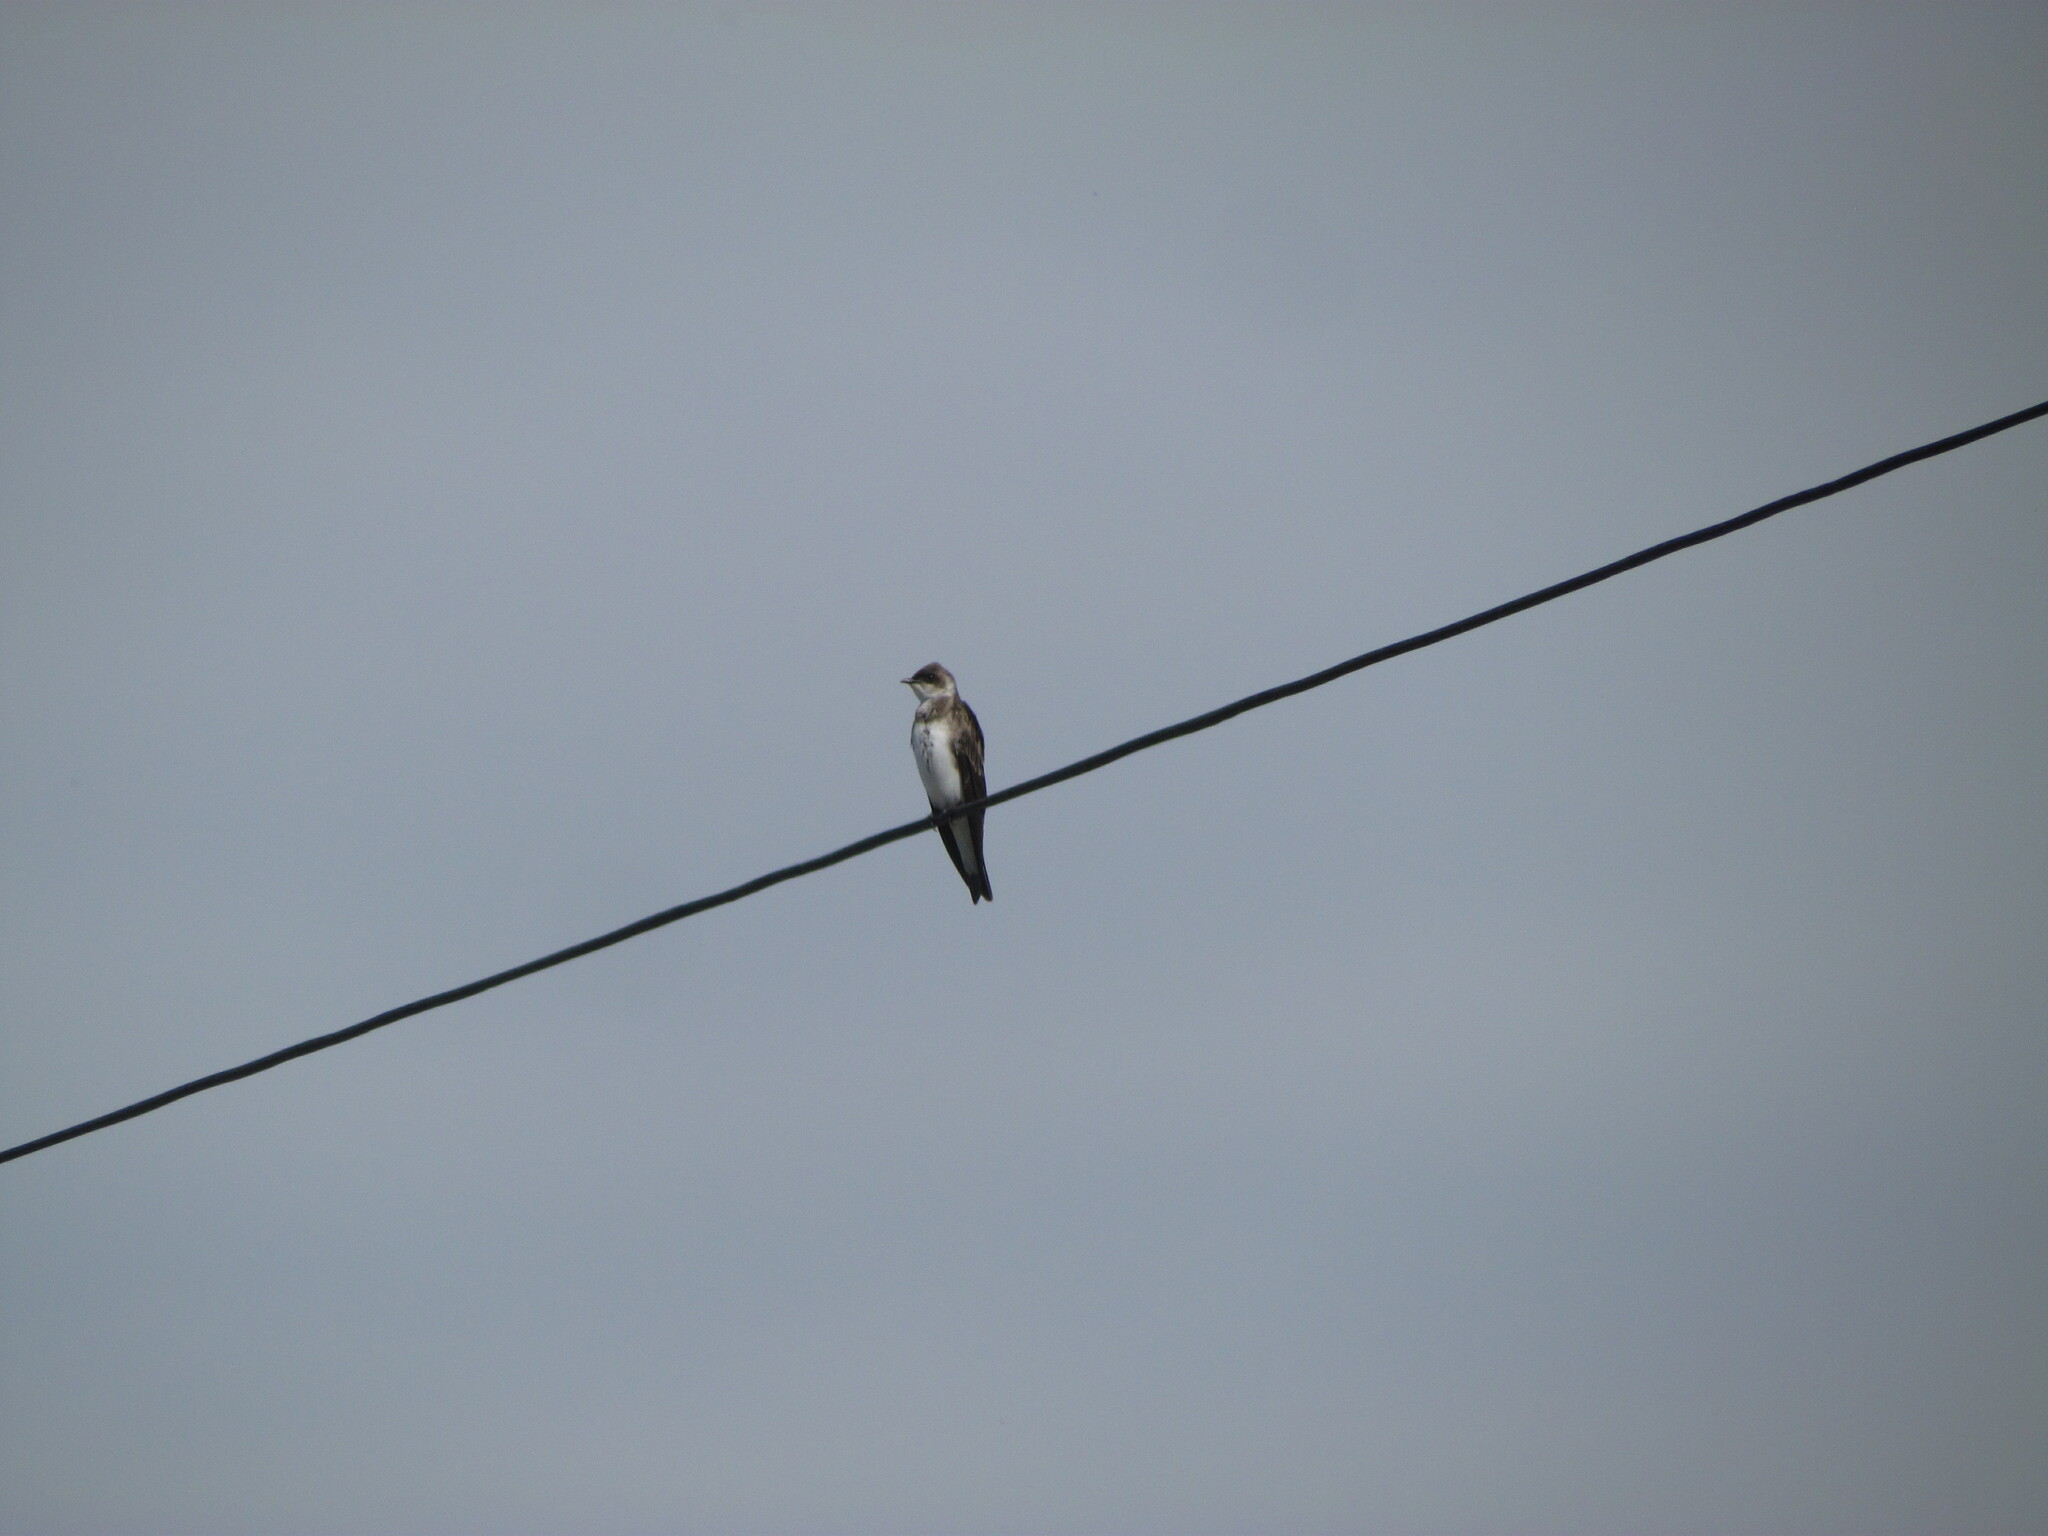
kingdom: Animalia
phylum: Chordata
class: Aves
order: Passeriformes
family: Hirundinidae
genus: Progne
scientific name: Progne tapera
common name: Brown-chested martin
